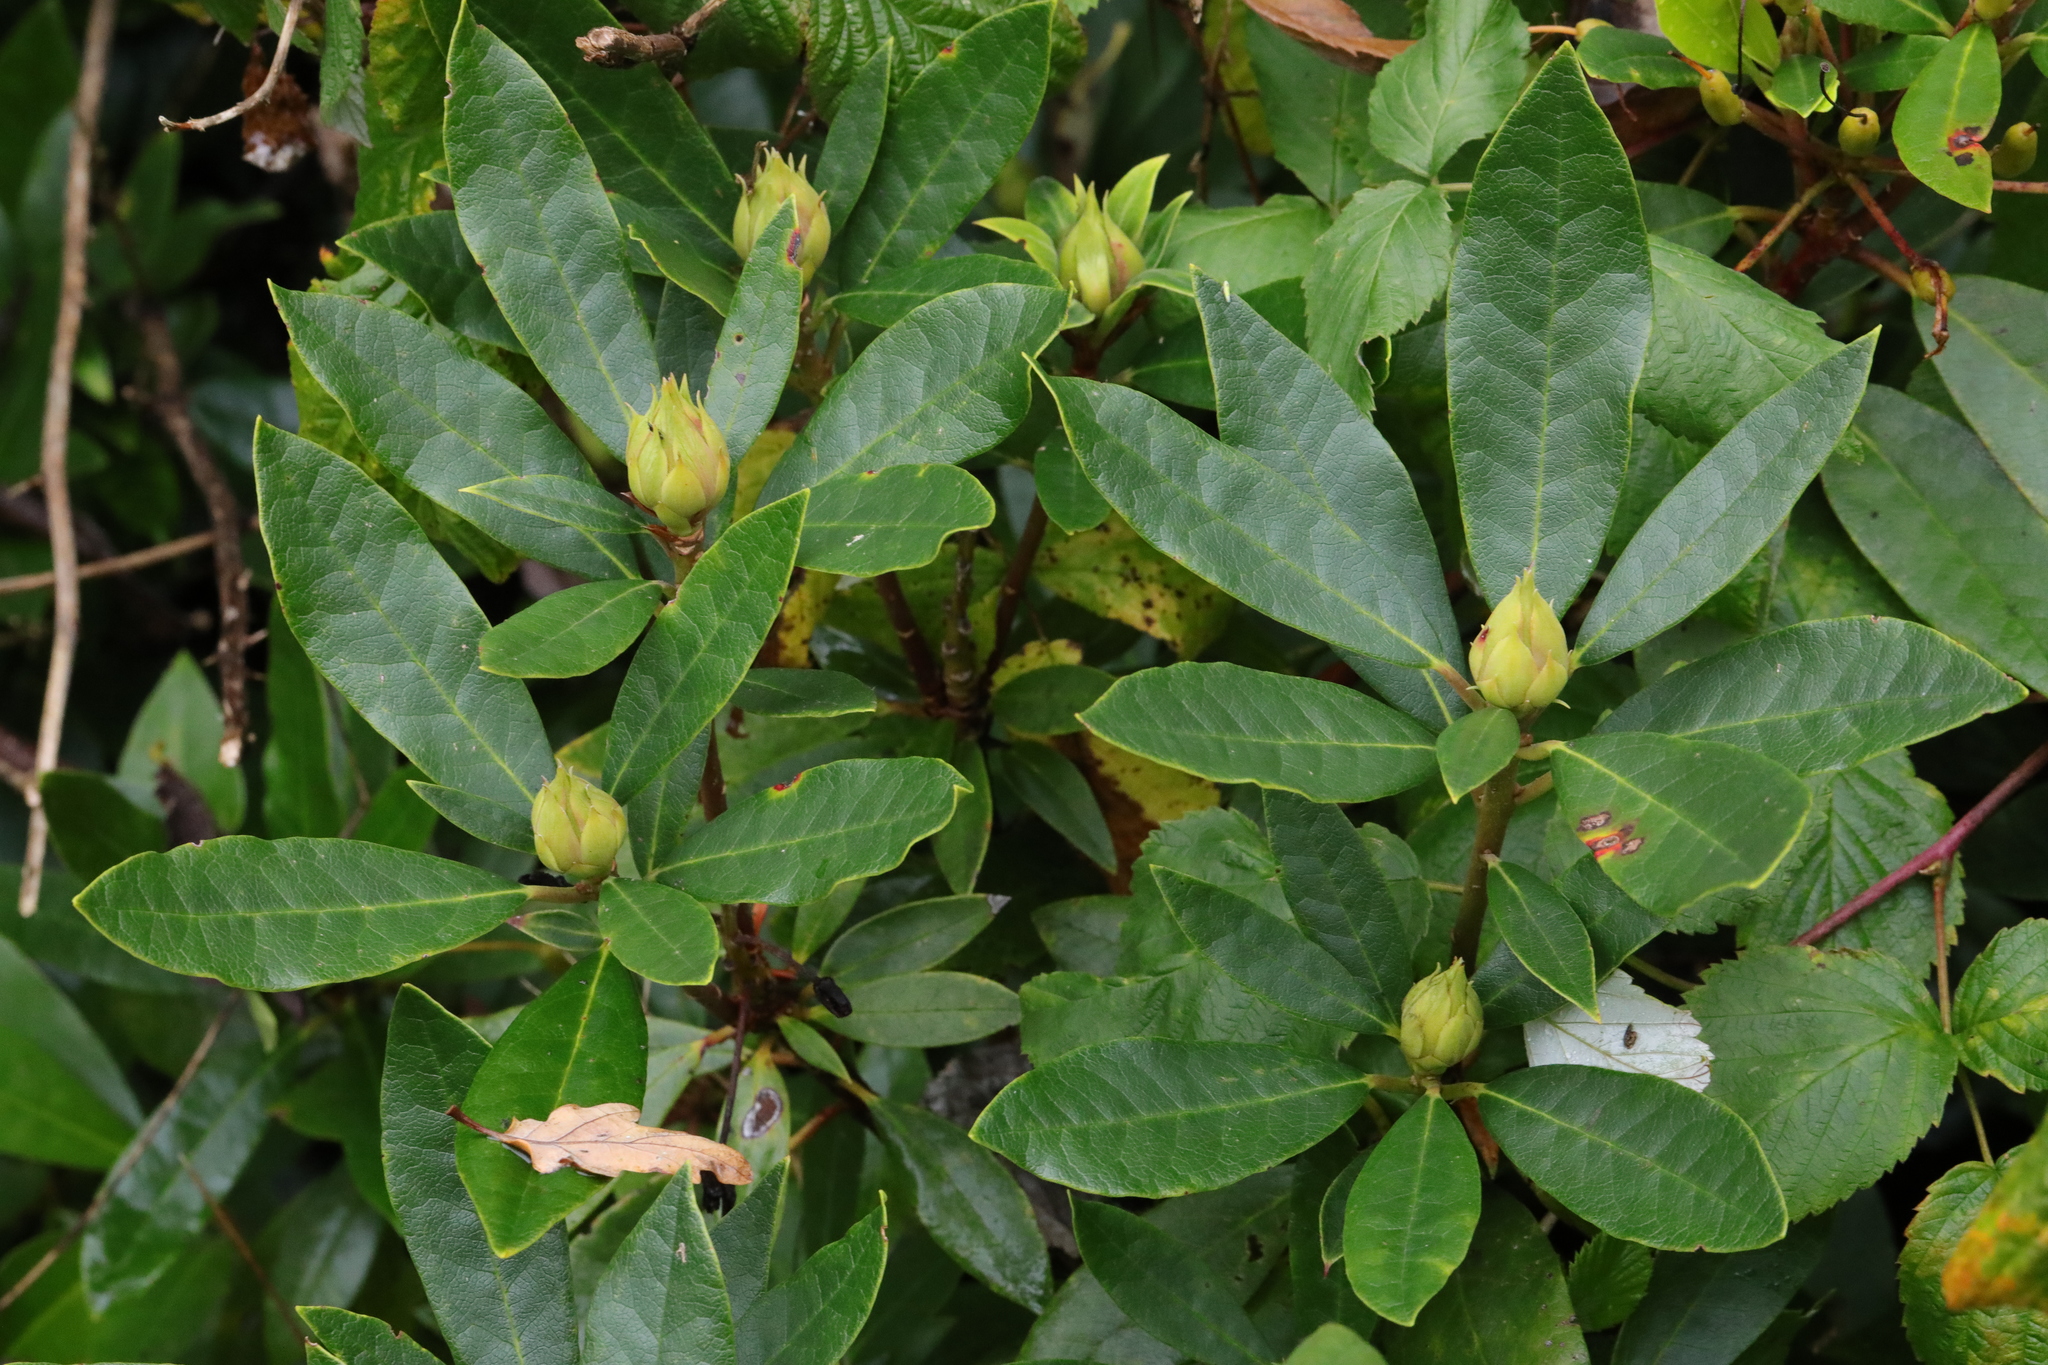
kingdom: Plantae
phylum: Tracheophyta
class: Magnoliopsida
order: Ericales
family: Ericaceae
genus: Rhododendron
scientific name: Rhododendron ponticum
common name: Rhododendron
